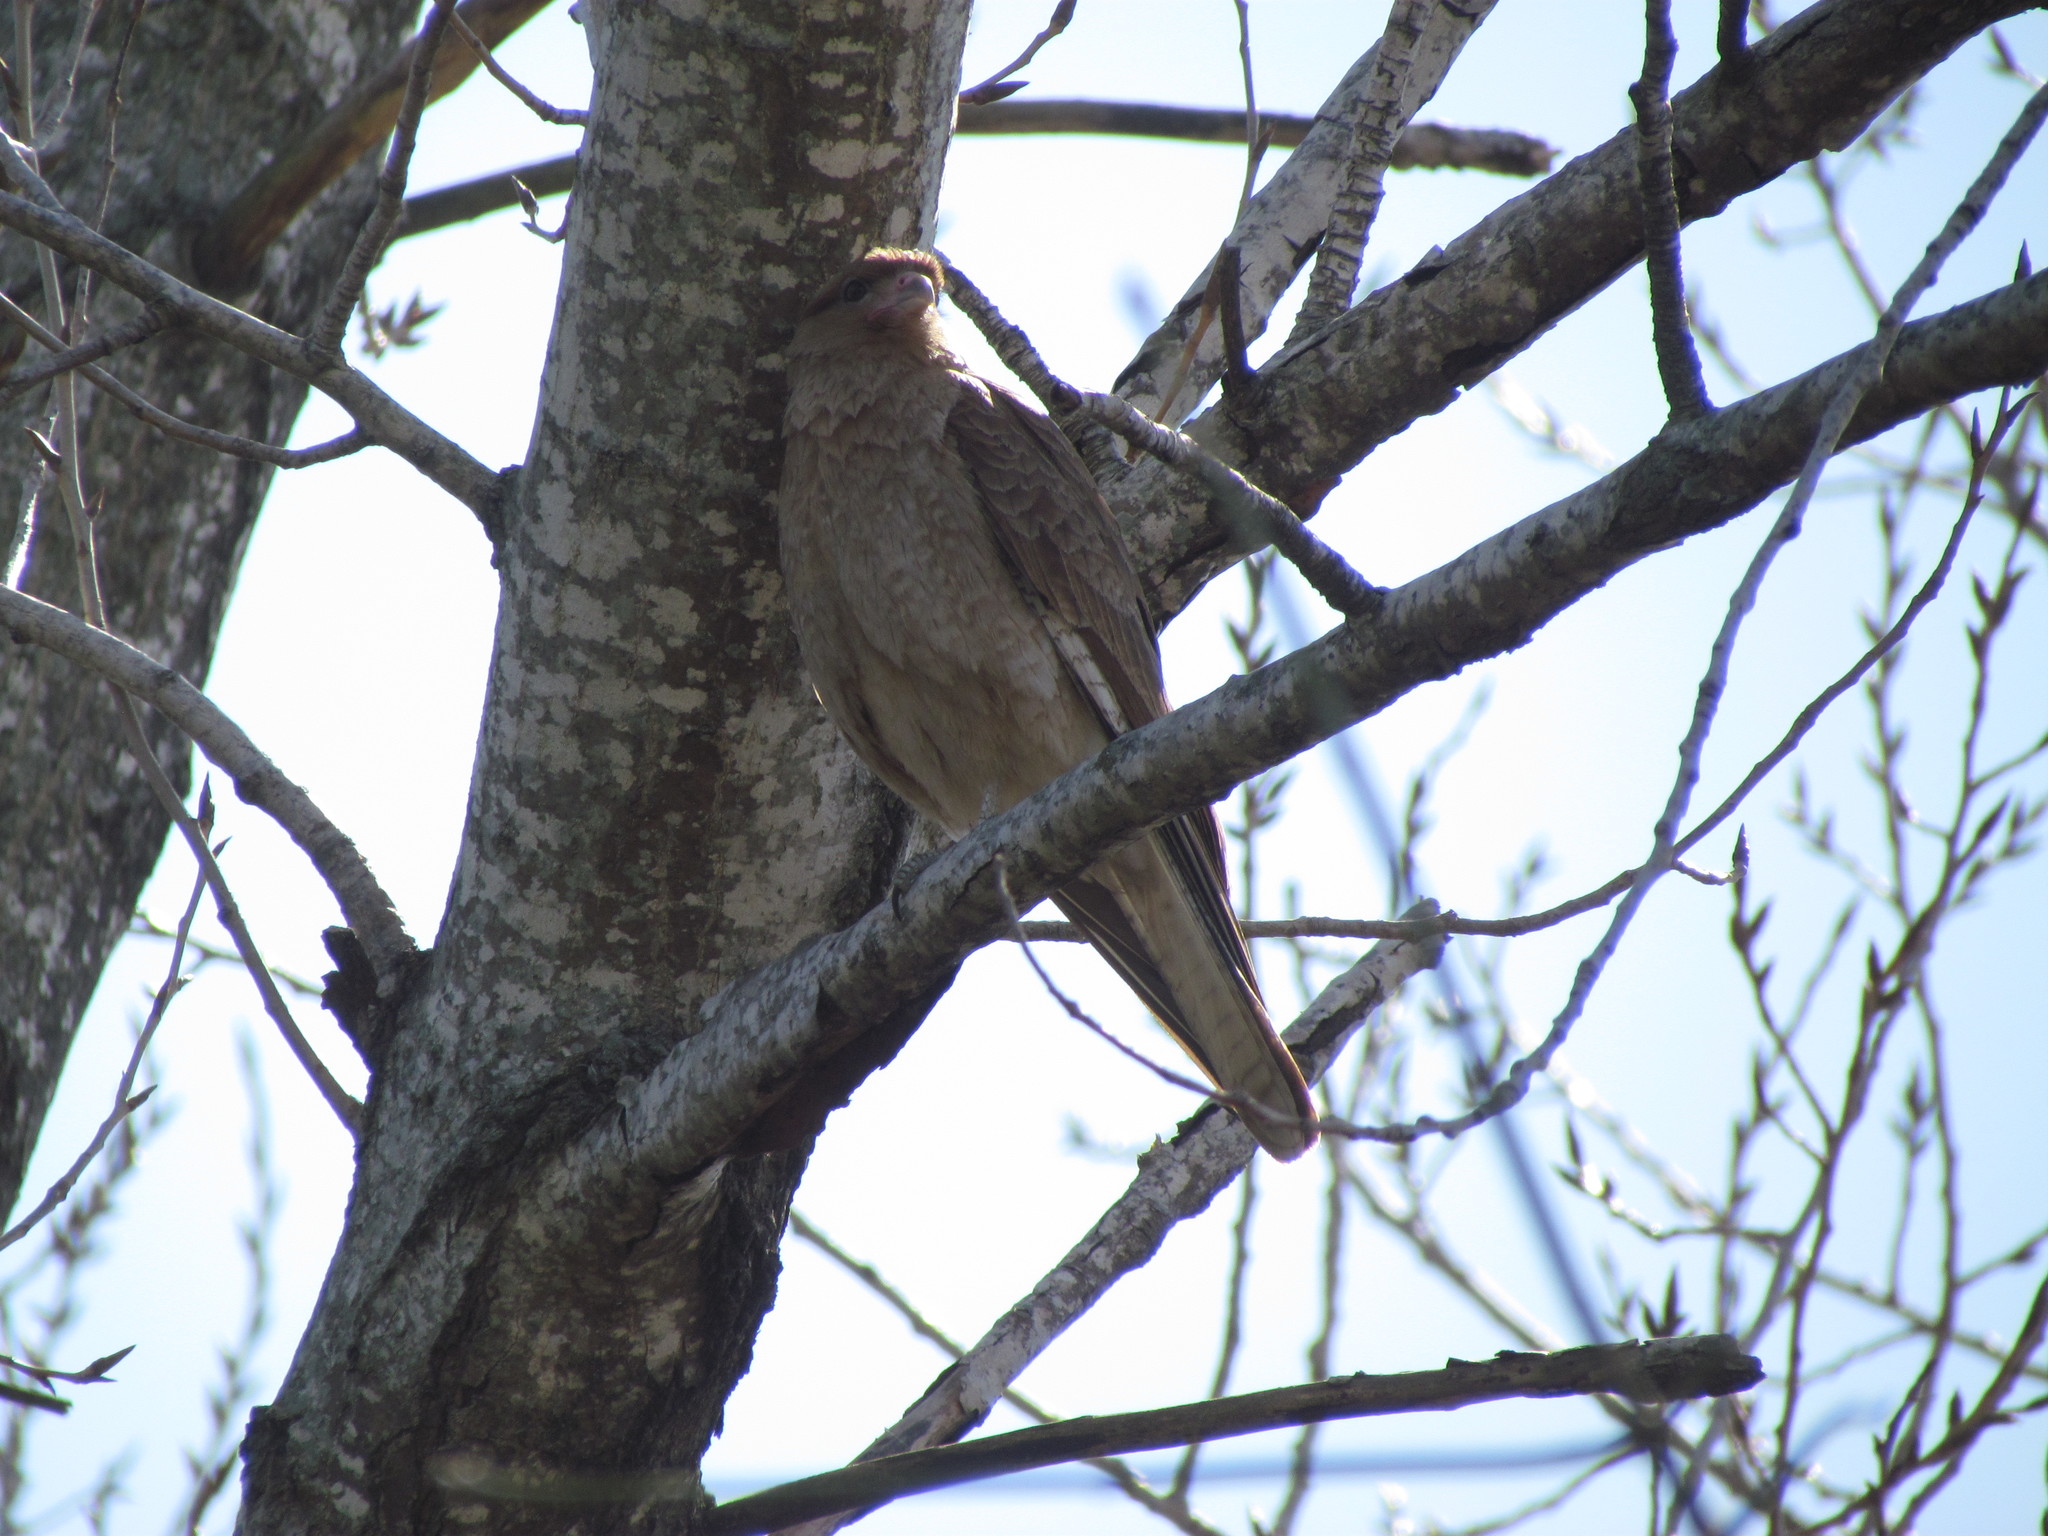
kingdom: Animalia
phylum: Chordata
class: Aves
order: Falconiformes
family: Falconidae
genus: Daptrius
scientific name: Daptrius
